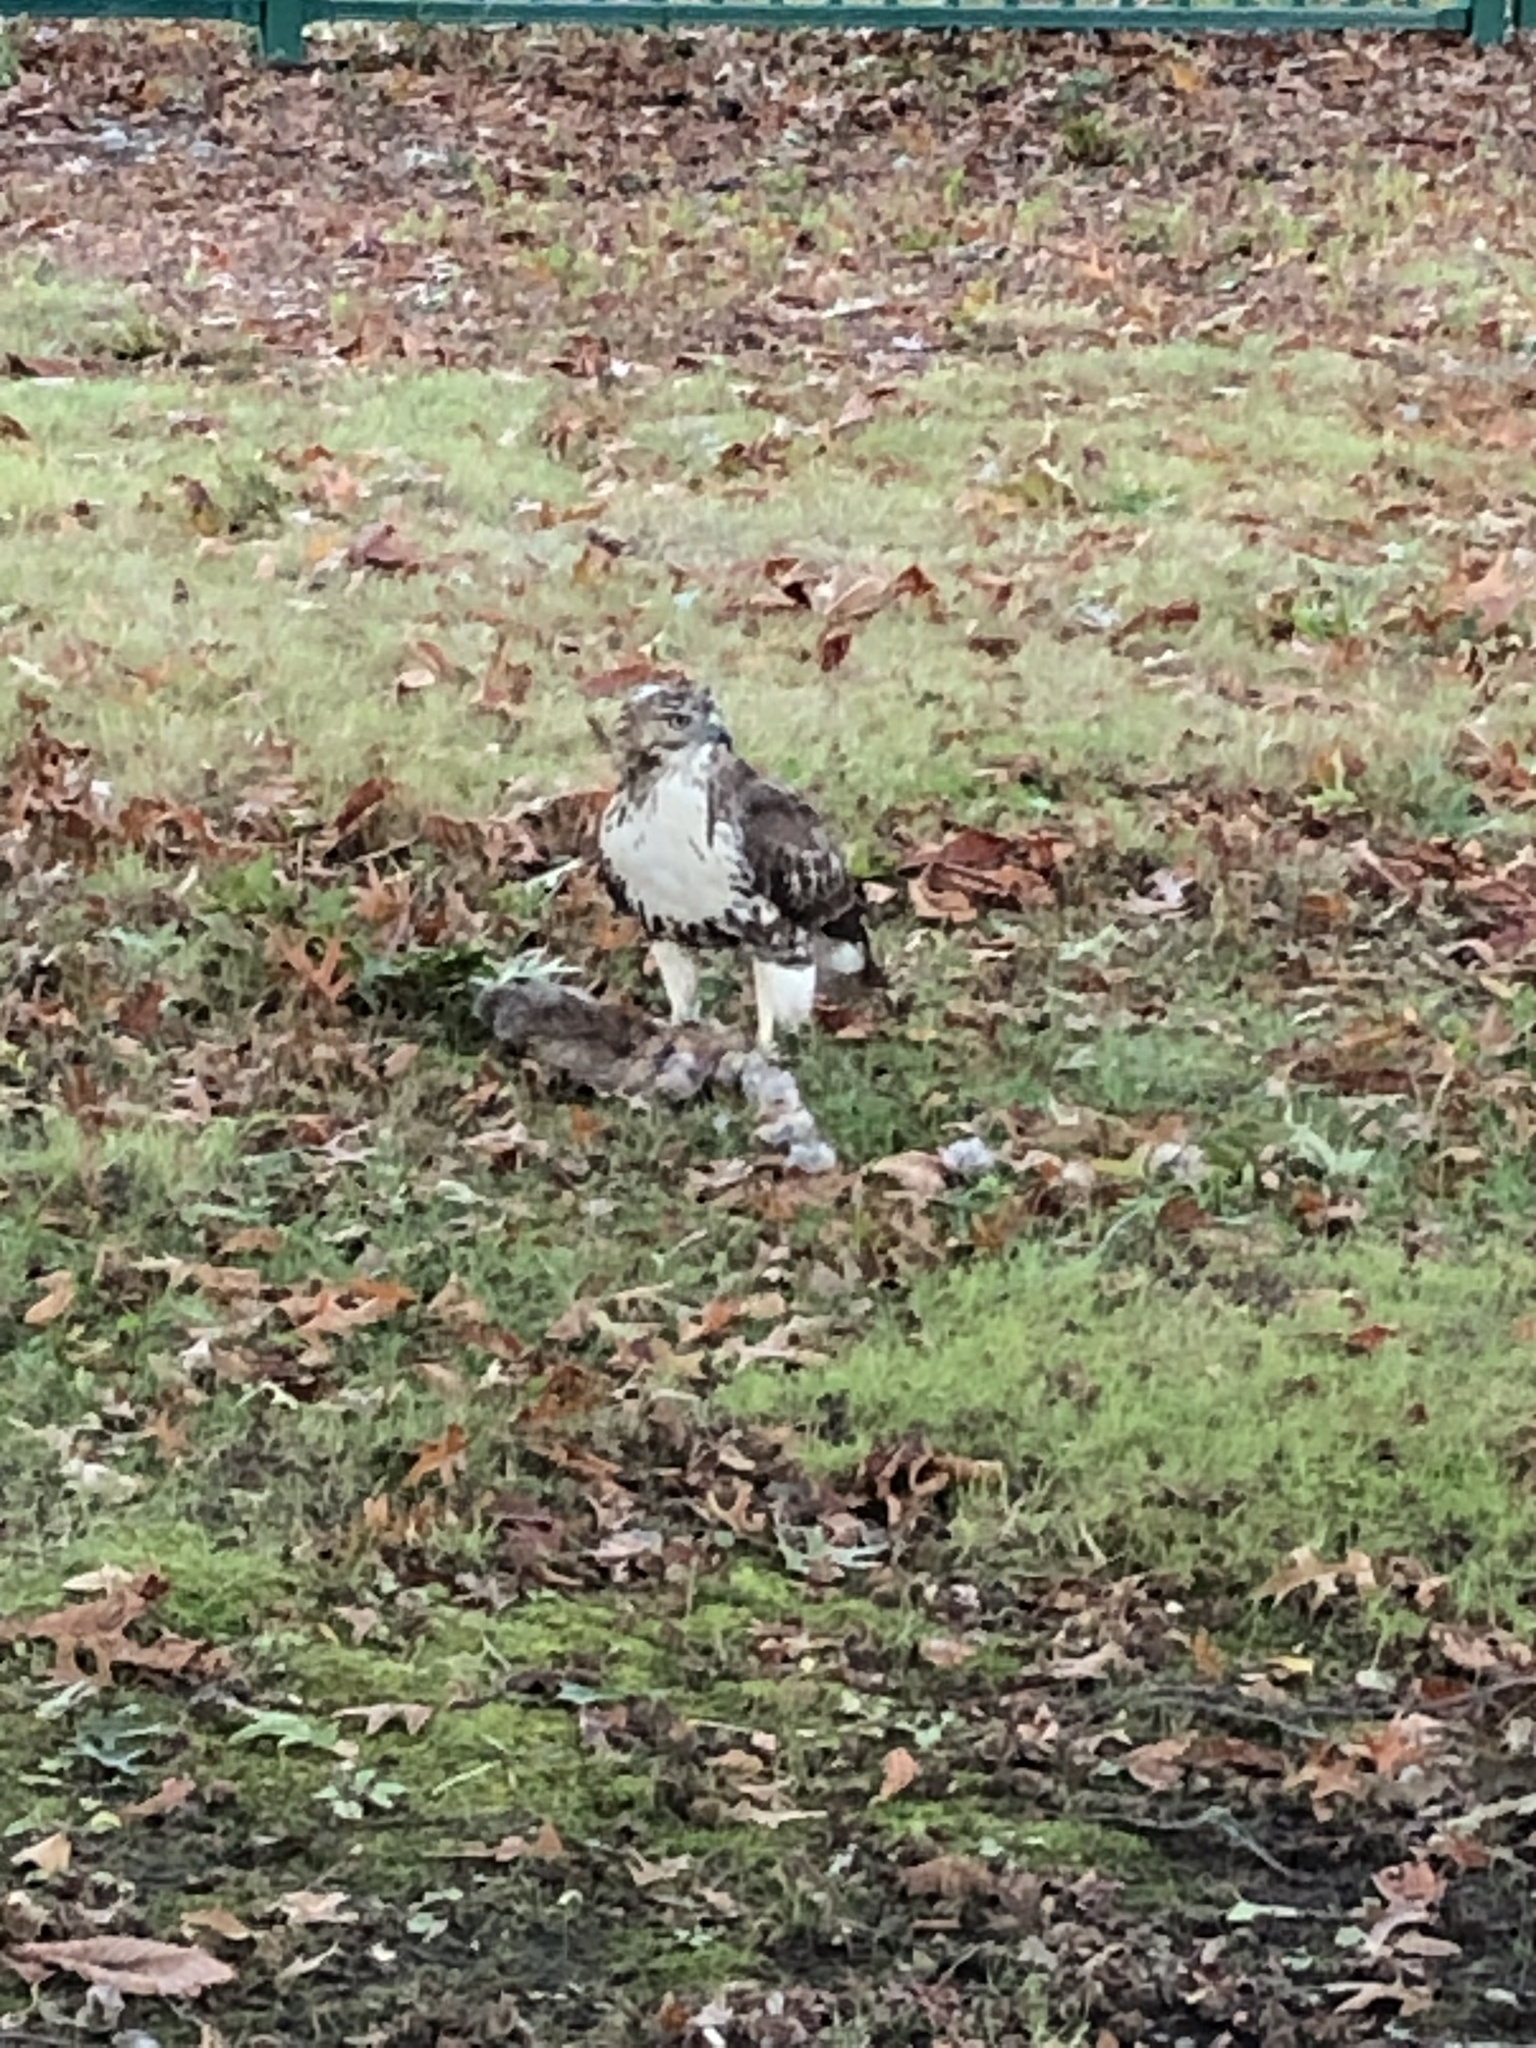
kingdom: Animalia
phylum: Chordata
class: Aves
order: Accipitriformes
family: Accipitridae
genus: Buteo
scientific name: Buteo jamaicensis
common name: Red-tailed hawk
